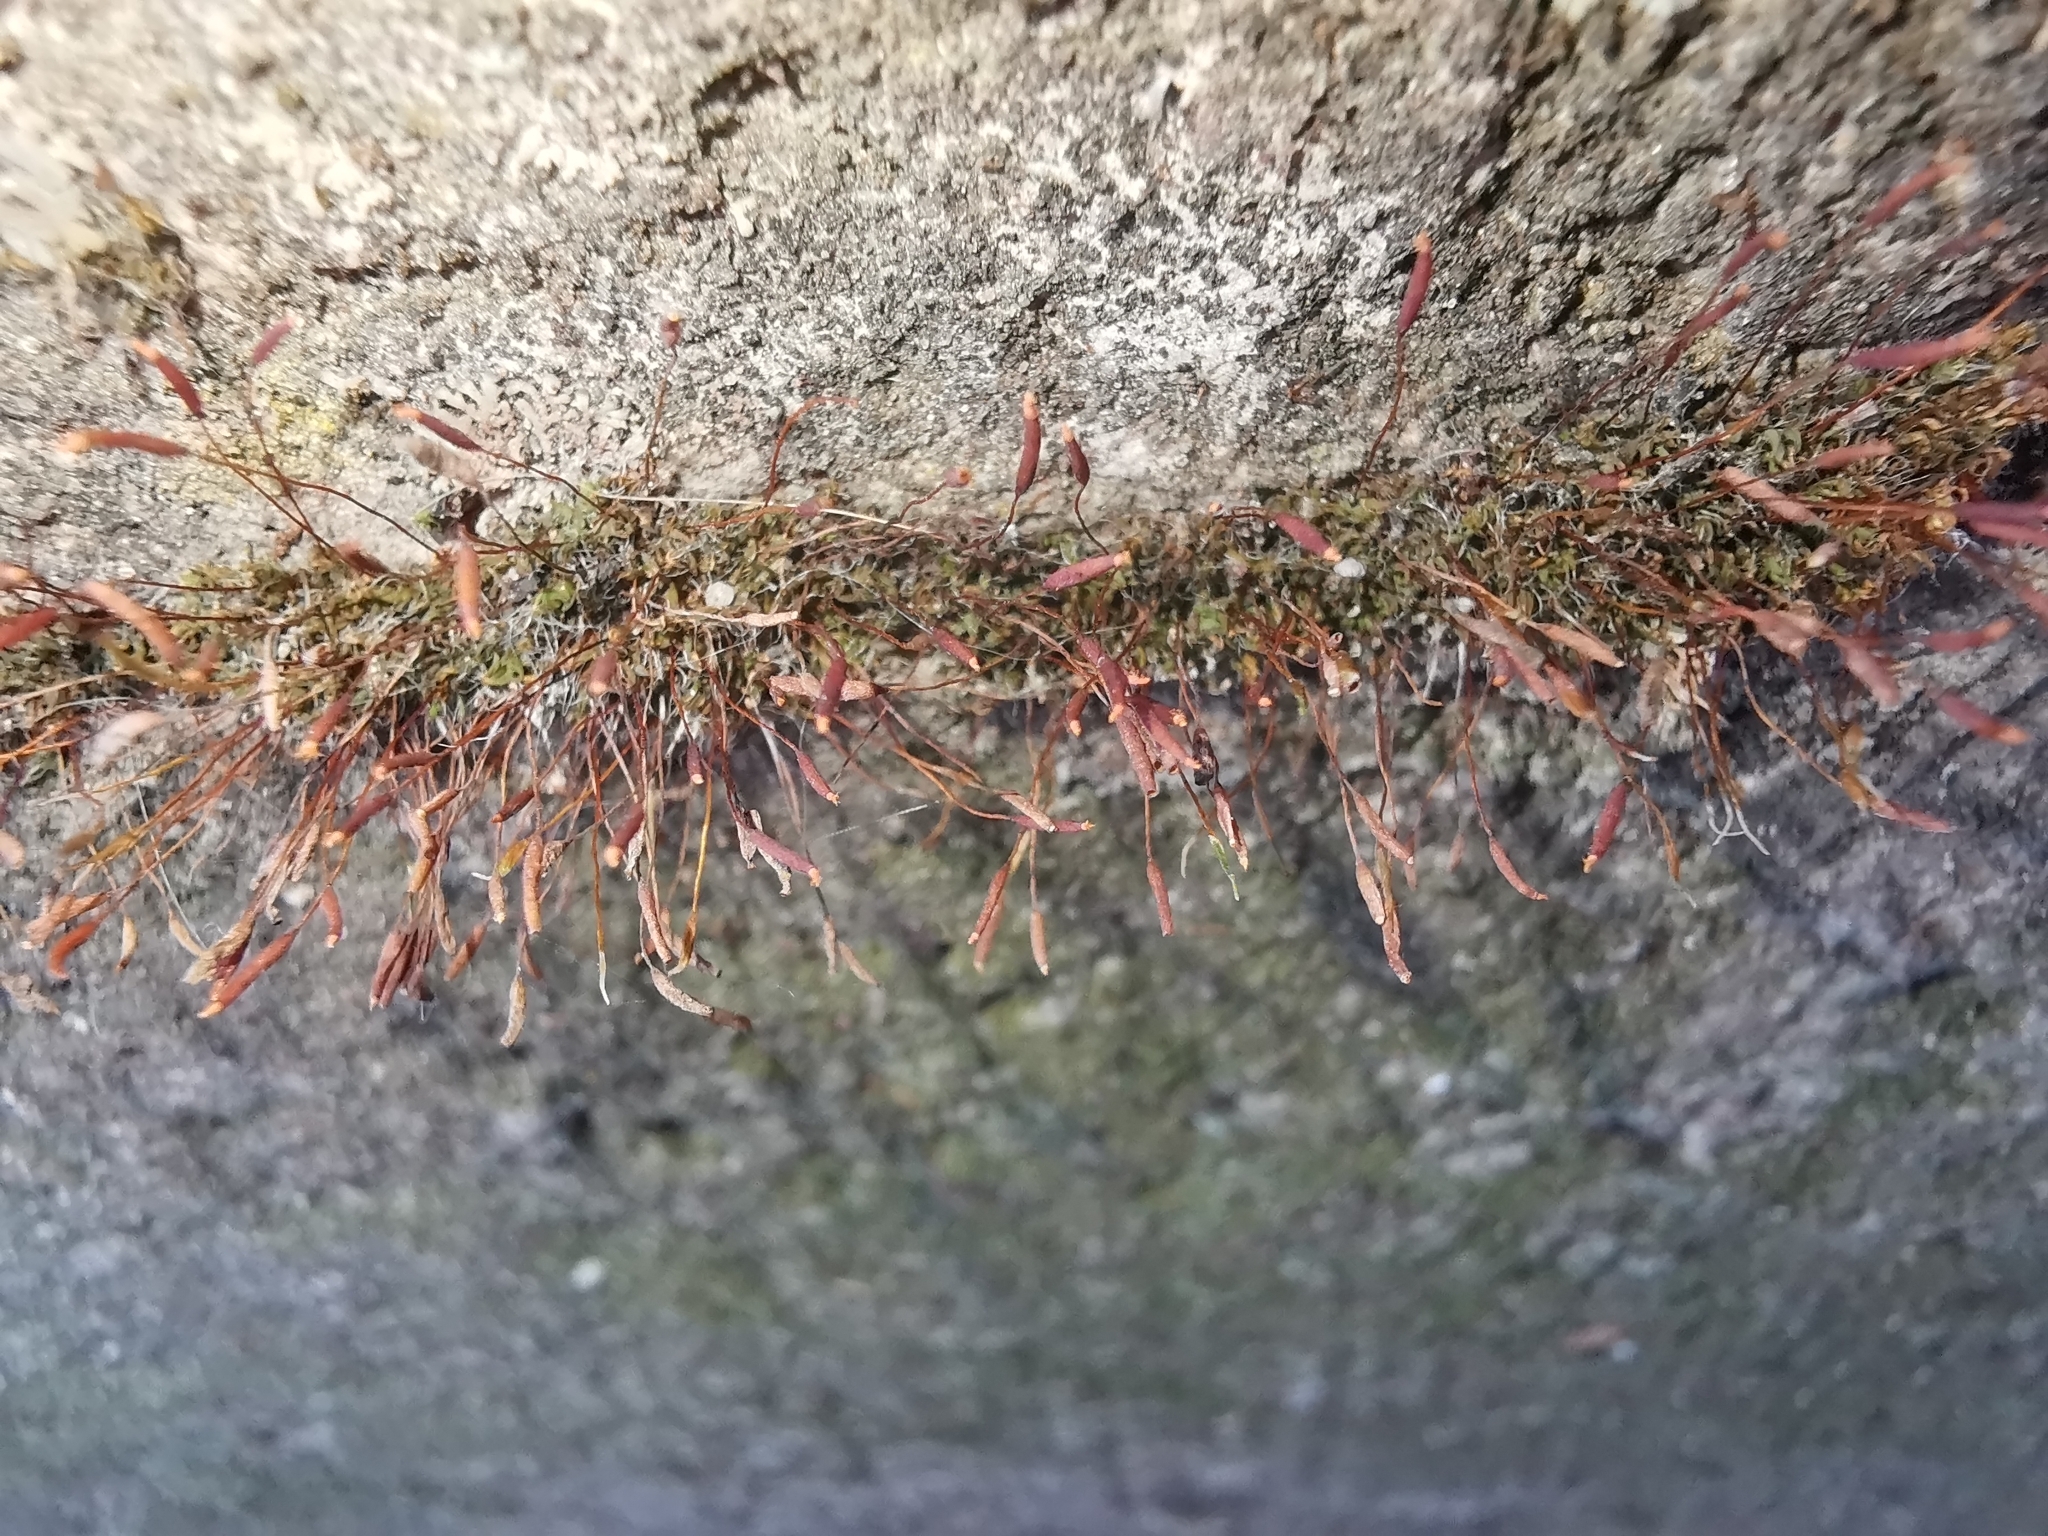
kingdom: Plantae
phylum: Bryophyta
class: Bryopsida
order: Pottiales
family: Pottiaceae
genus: Tortula
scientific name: Tortula muralis
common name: Wall screw-moss
